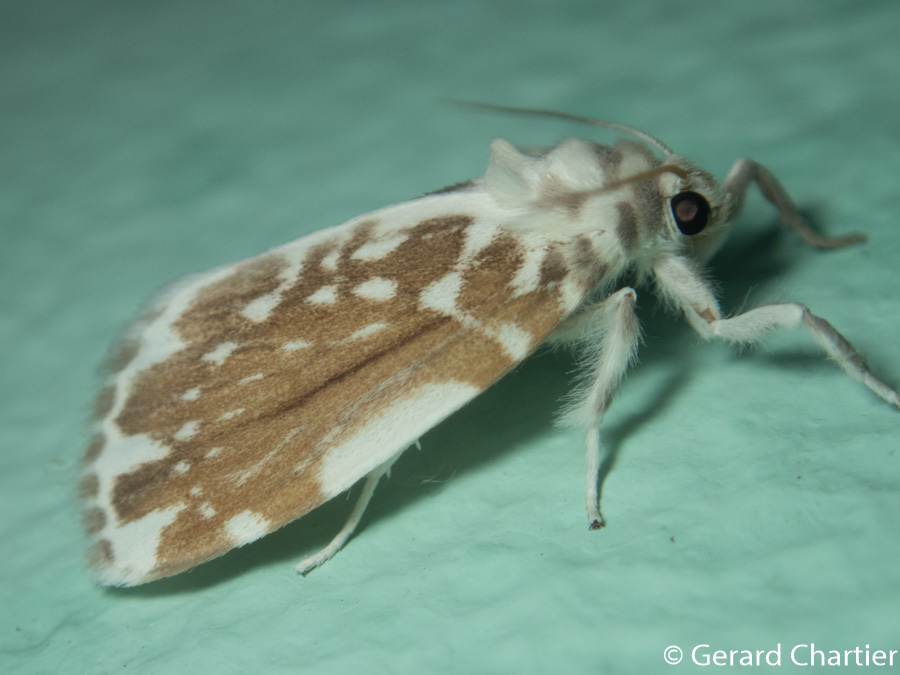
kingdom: Animalia
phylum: Arthropoda
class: Insecta
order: Lepidoptera
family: Erebidae
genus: Pseudoadites
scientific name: Pseudoadites frigida
